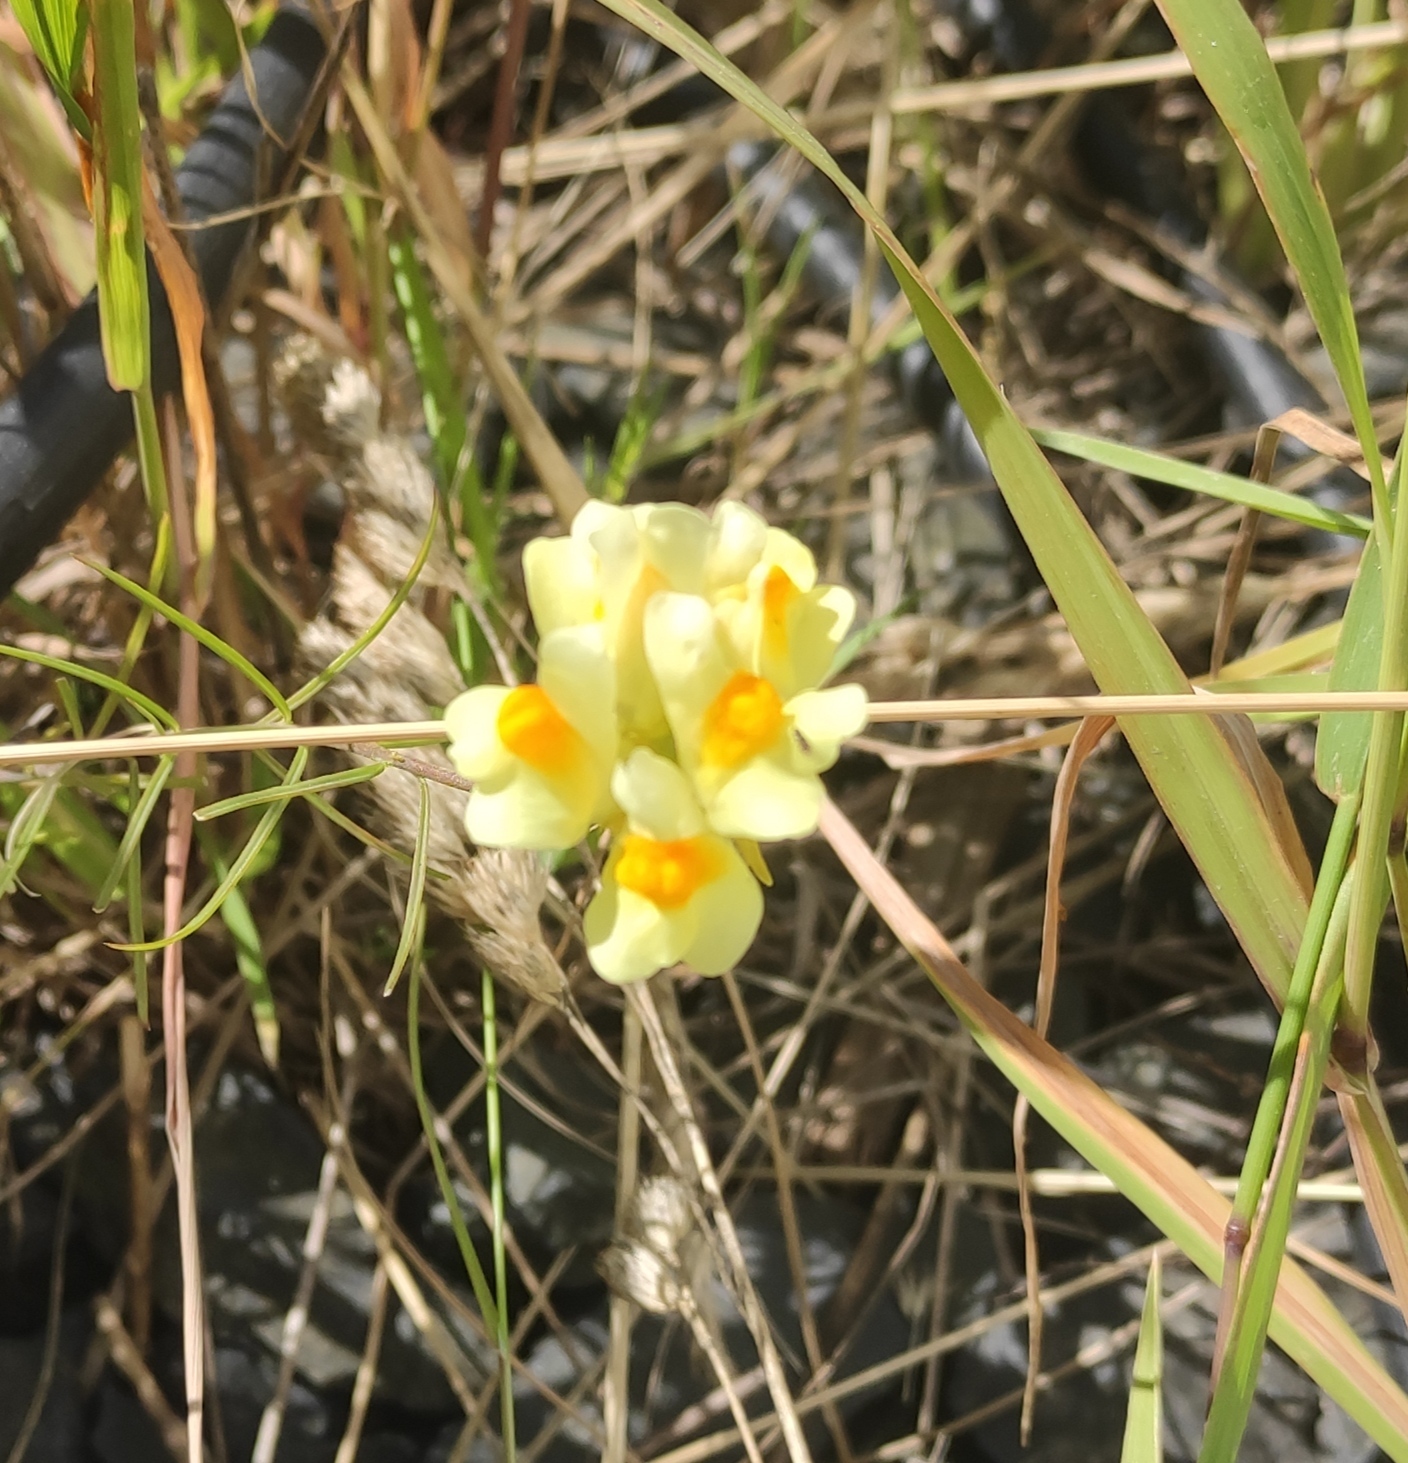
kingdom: Plantae
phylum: Tracheophyta
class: Magnoliopsida
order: Lamiales
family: Plantaginaceae
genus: Linaria
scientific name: Linaria vulgaris
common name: Butter and eggs
